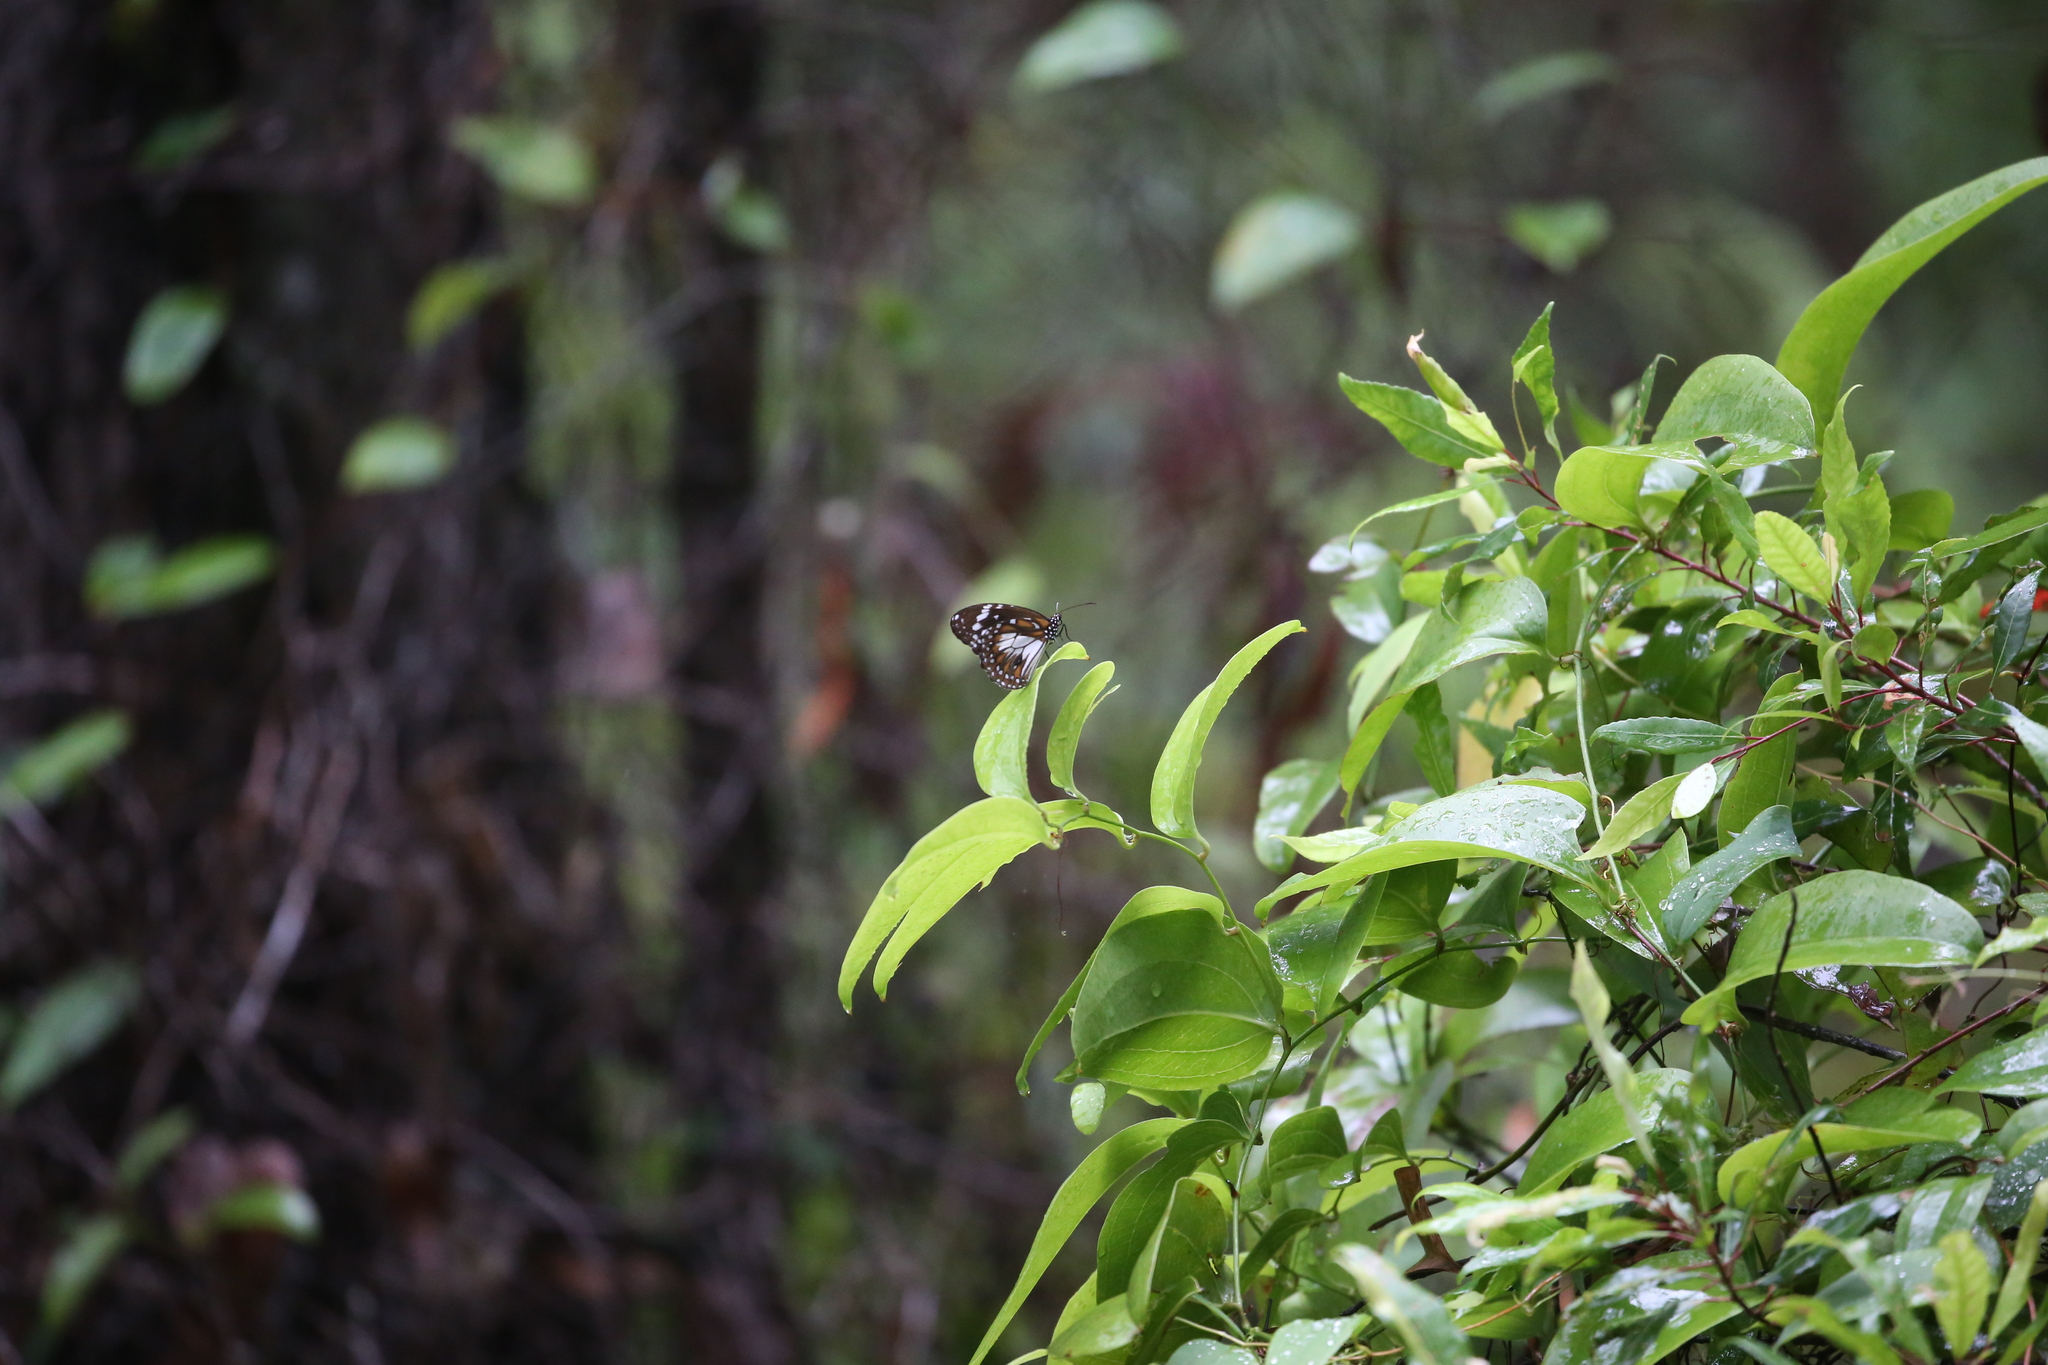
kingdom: Animalia
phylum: Arthropoda
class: Insecta
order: Lepidoptera
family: Nymphalidae
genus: Danaus
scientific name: Danaus affinis
